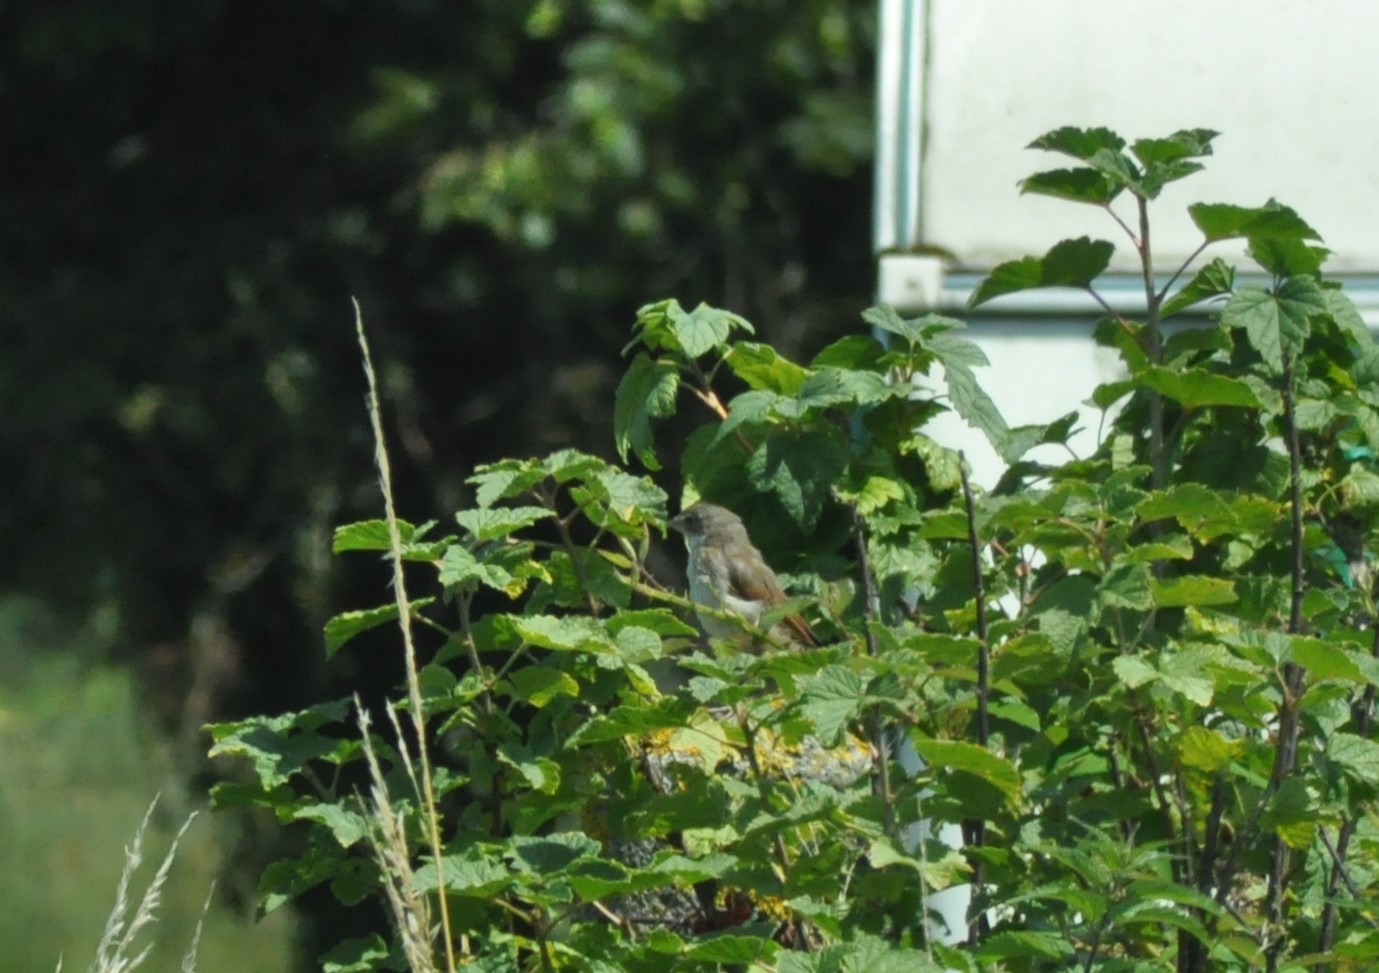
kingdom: Animalia
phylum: Chordata
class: Aves
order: Passeriformes
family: Sylviidae
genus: Sylvia
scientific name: Sylvia communis
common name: Common whitethroat
